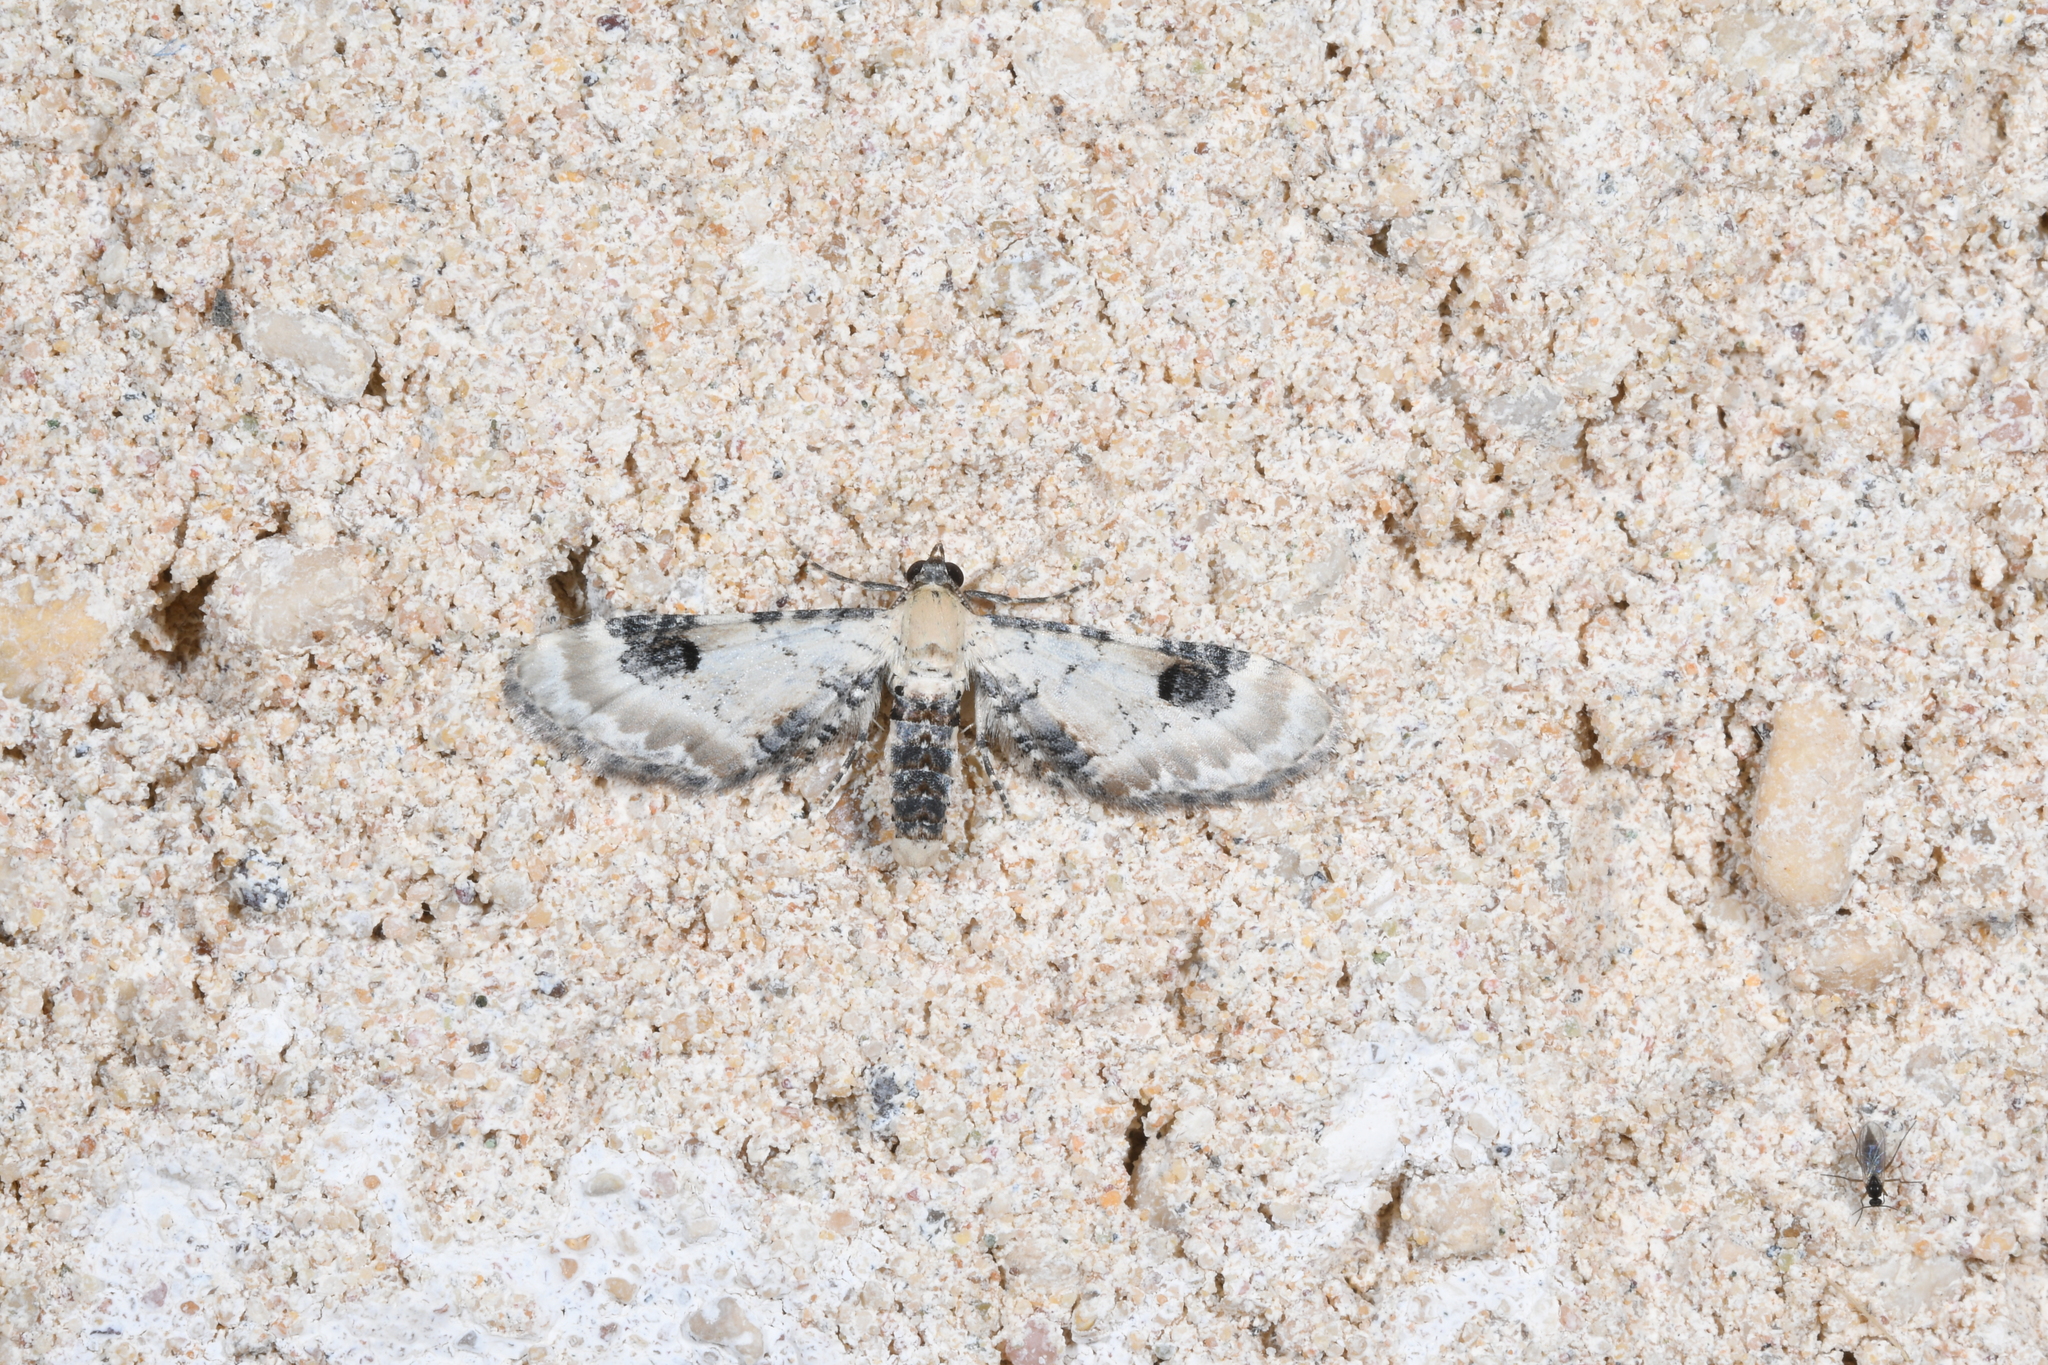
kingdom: Animalia
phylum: Arthropoda
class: Insecta
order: Lepidoptera
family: Geometridae
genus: Eupithecia
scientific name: Eupithecia centaureata
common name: Lime-speck pug
